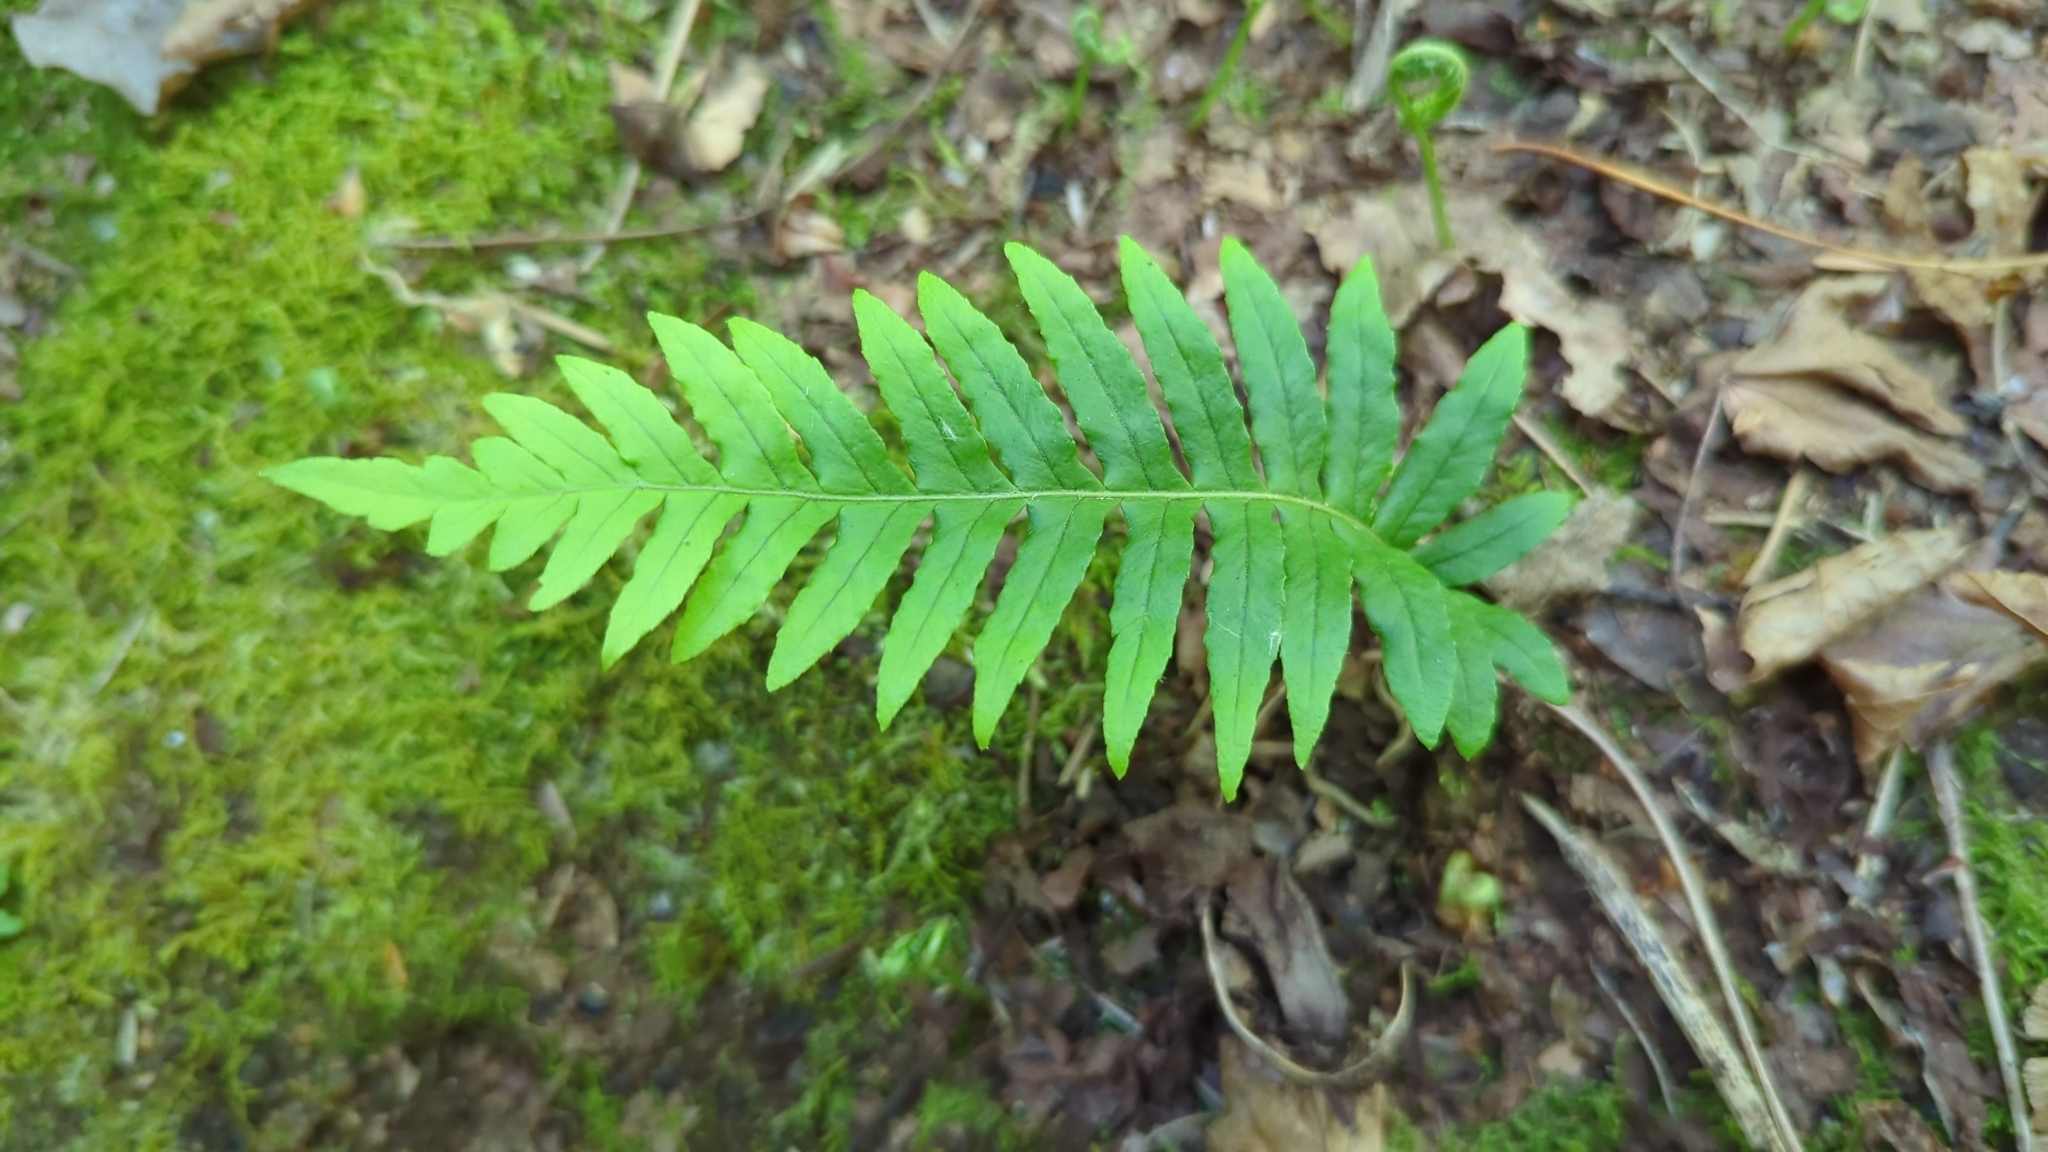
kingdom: Plantae
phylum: Tracheophyta
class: Polypodiopsida
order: Polypodiales
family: Polypodiaceae
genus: Polypodium
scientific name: Polypodium glycyrrhiza
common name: Licorice fern
